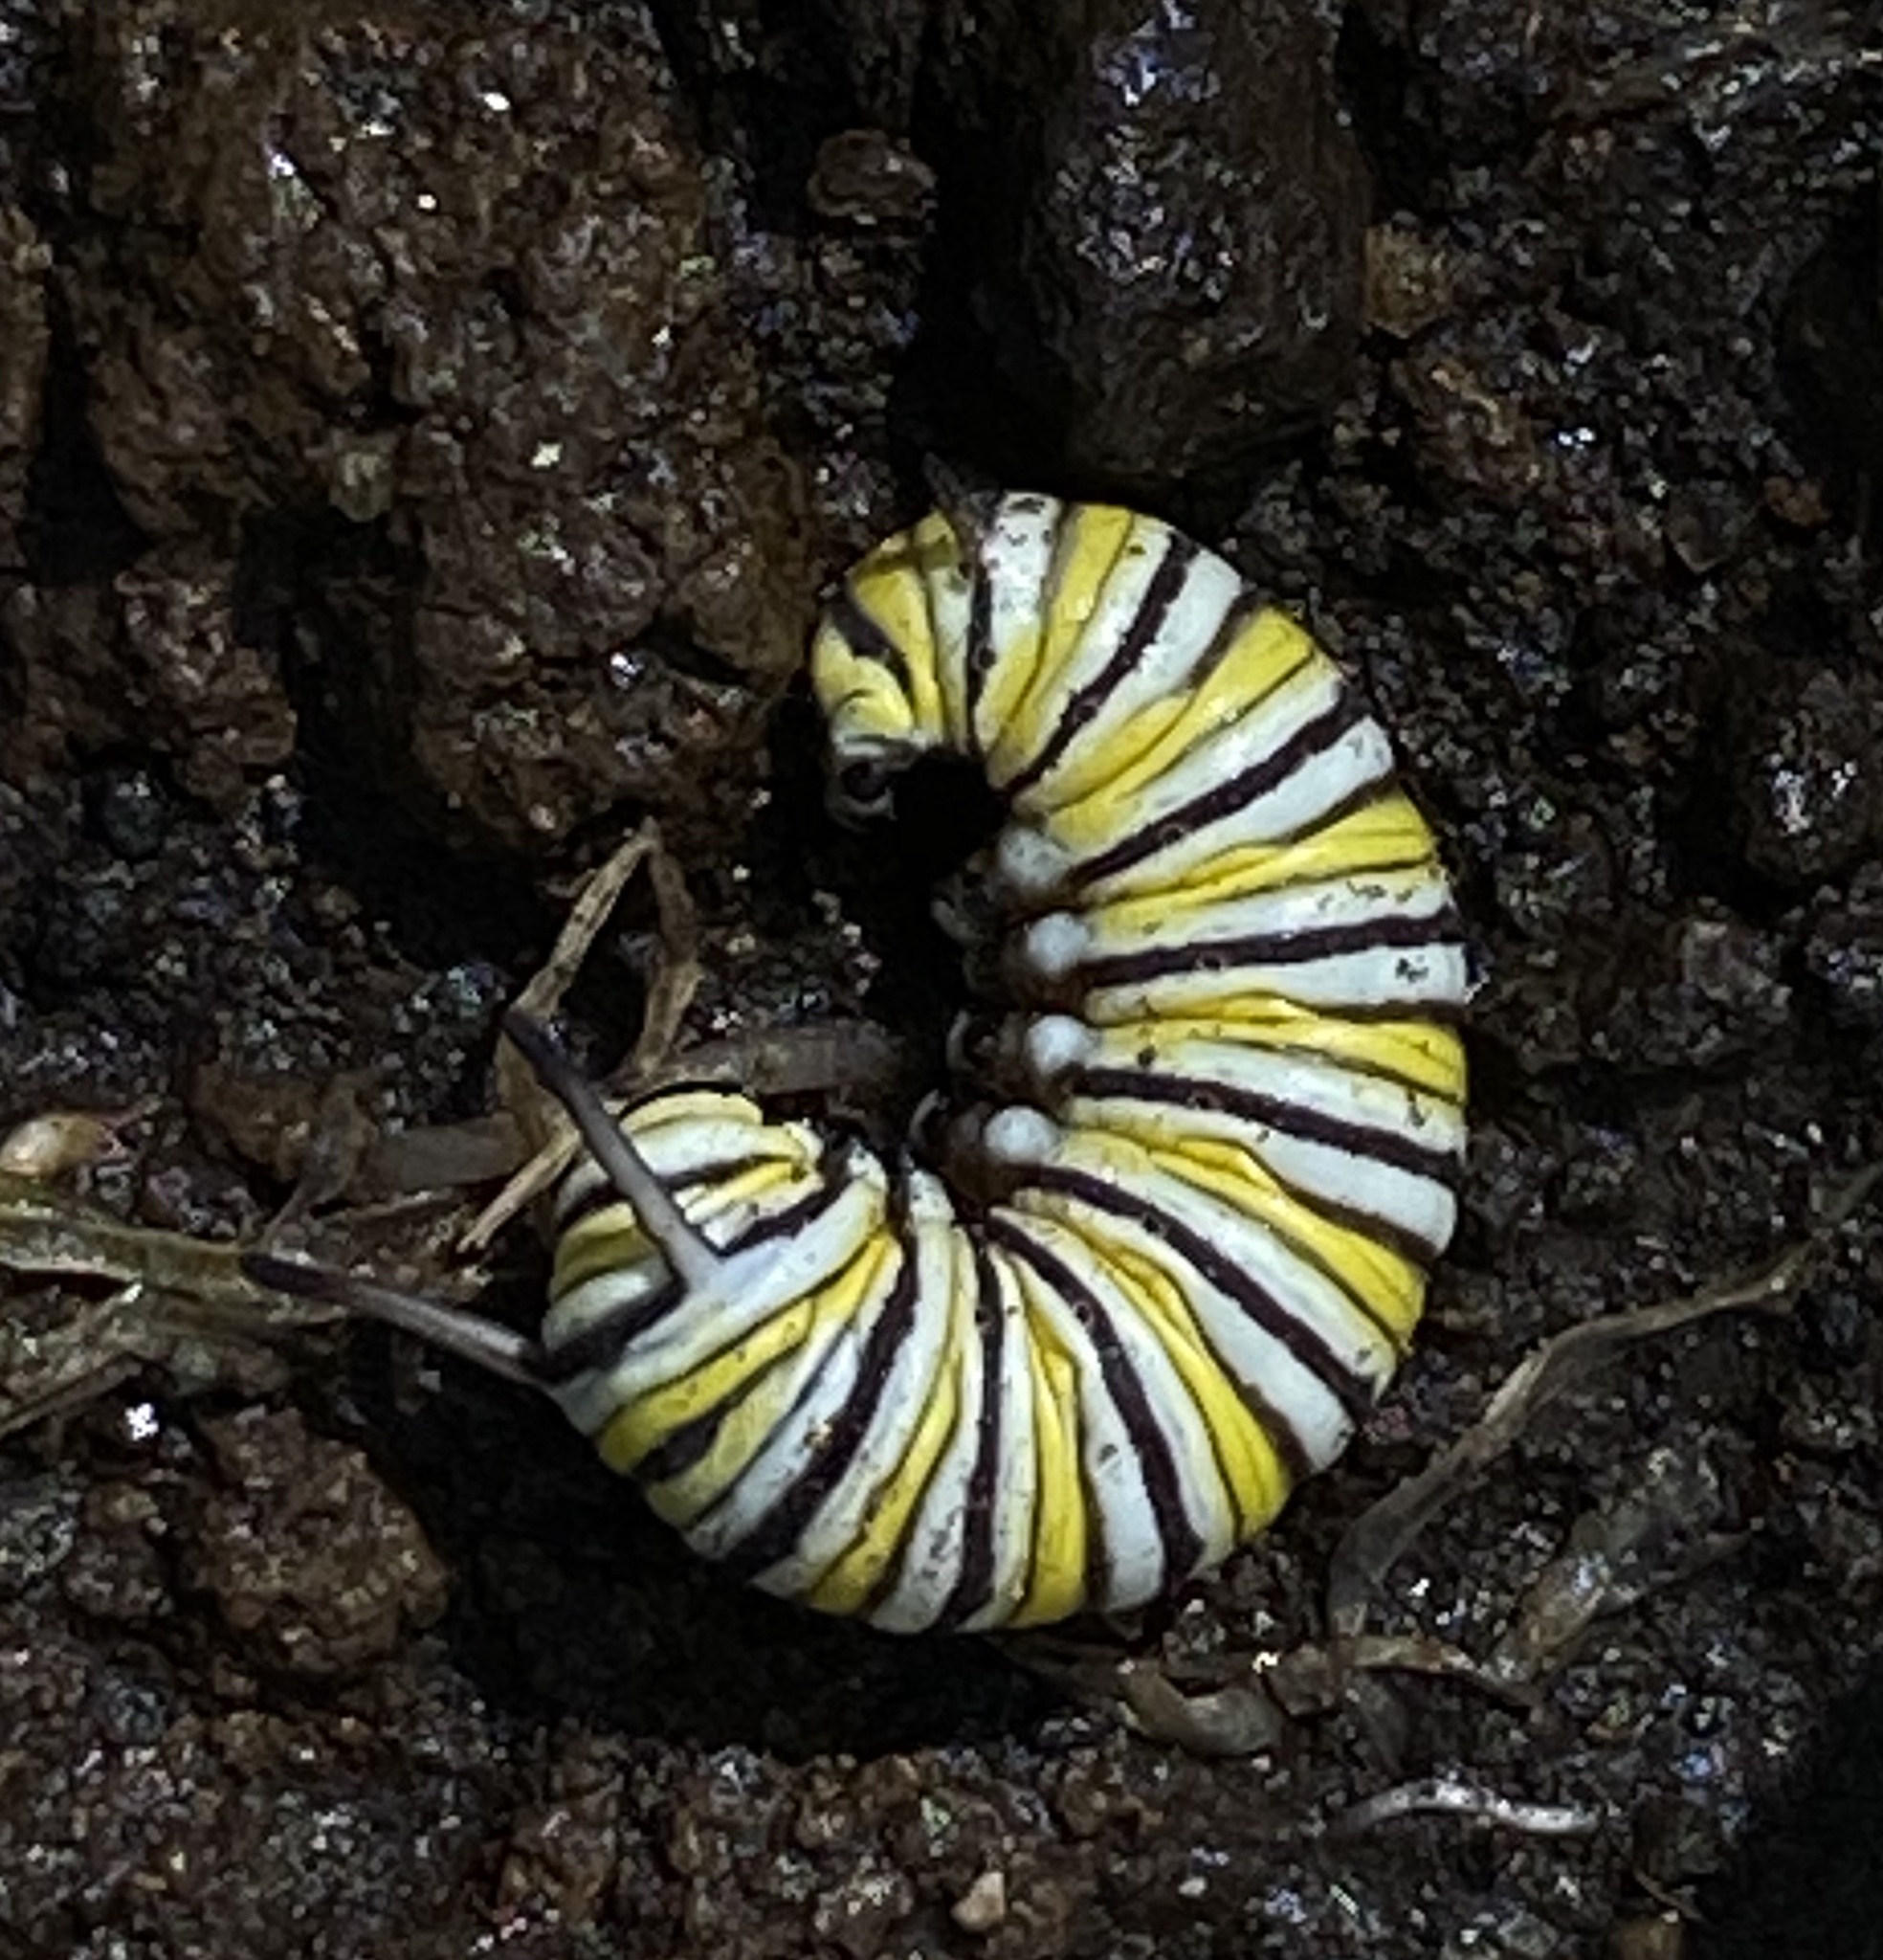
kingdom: Animalia
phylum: Arthropoda
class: Insecta
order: Lepidoptera
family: Nymphalidae
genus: Danaus
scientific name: Danaus plexippus
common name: Monarch
